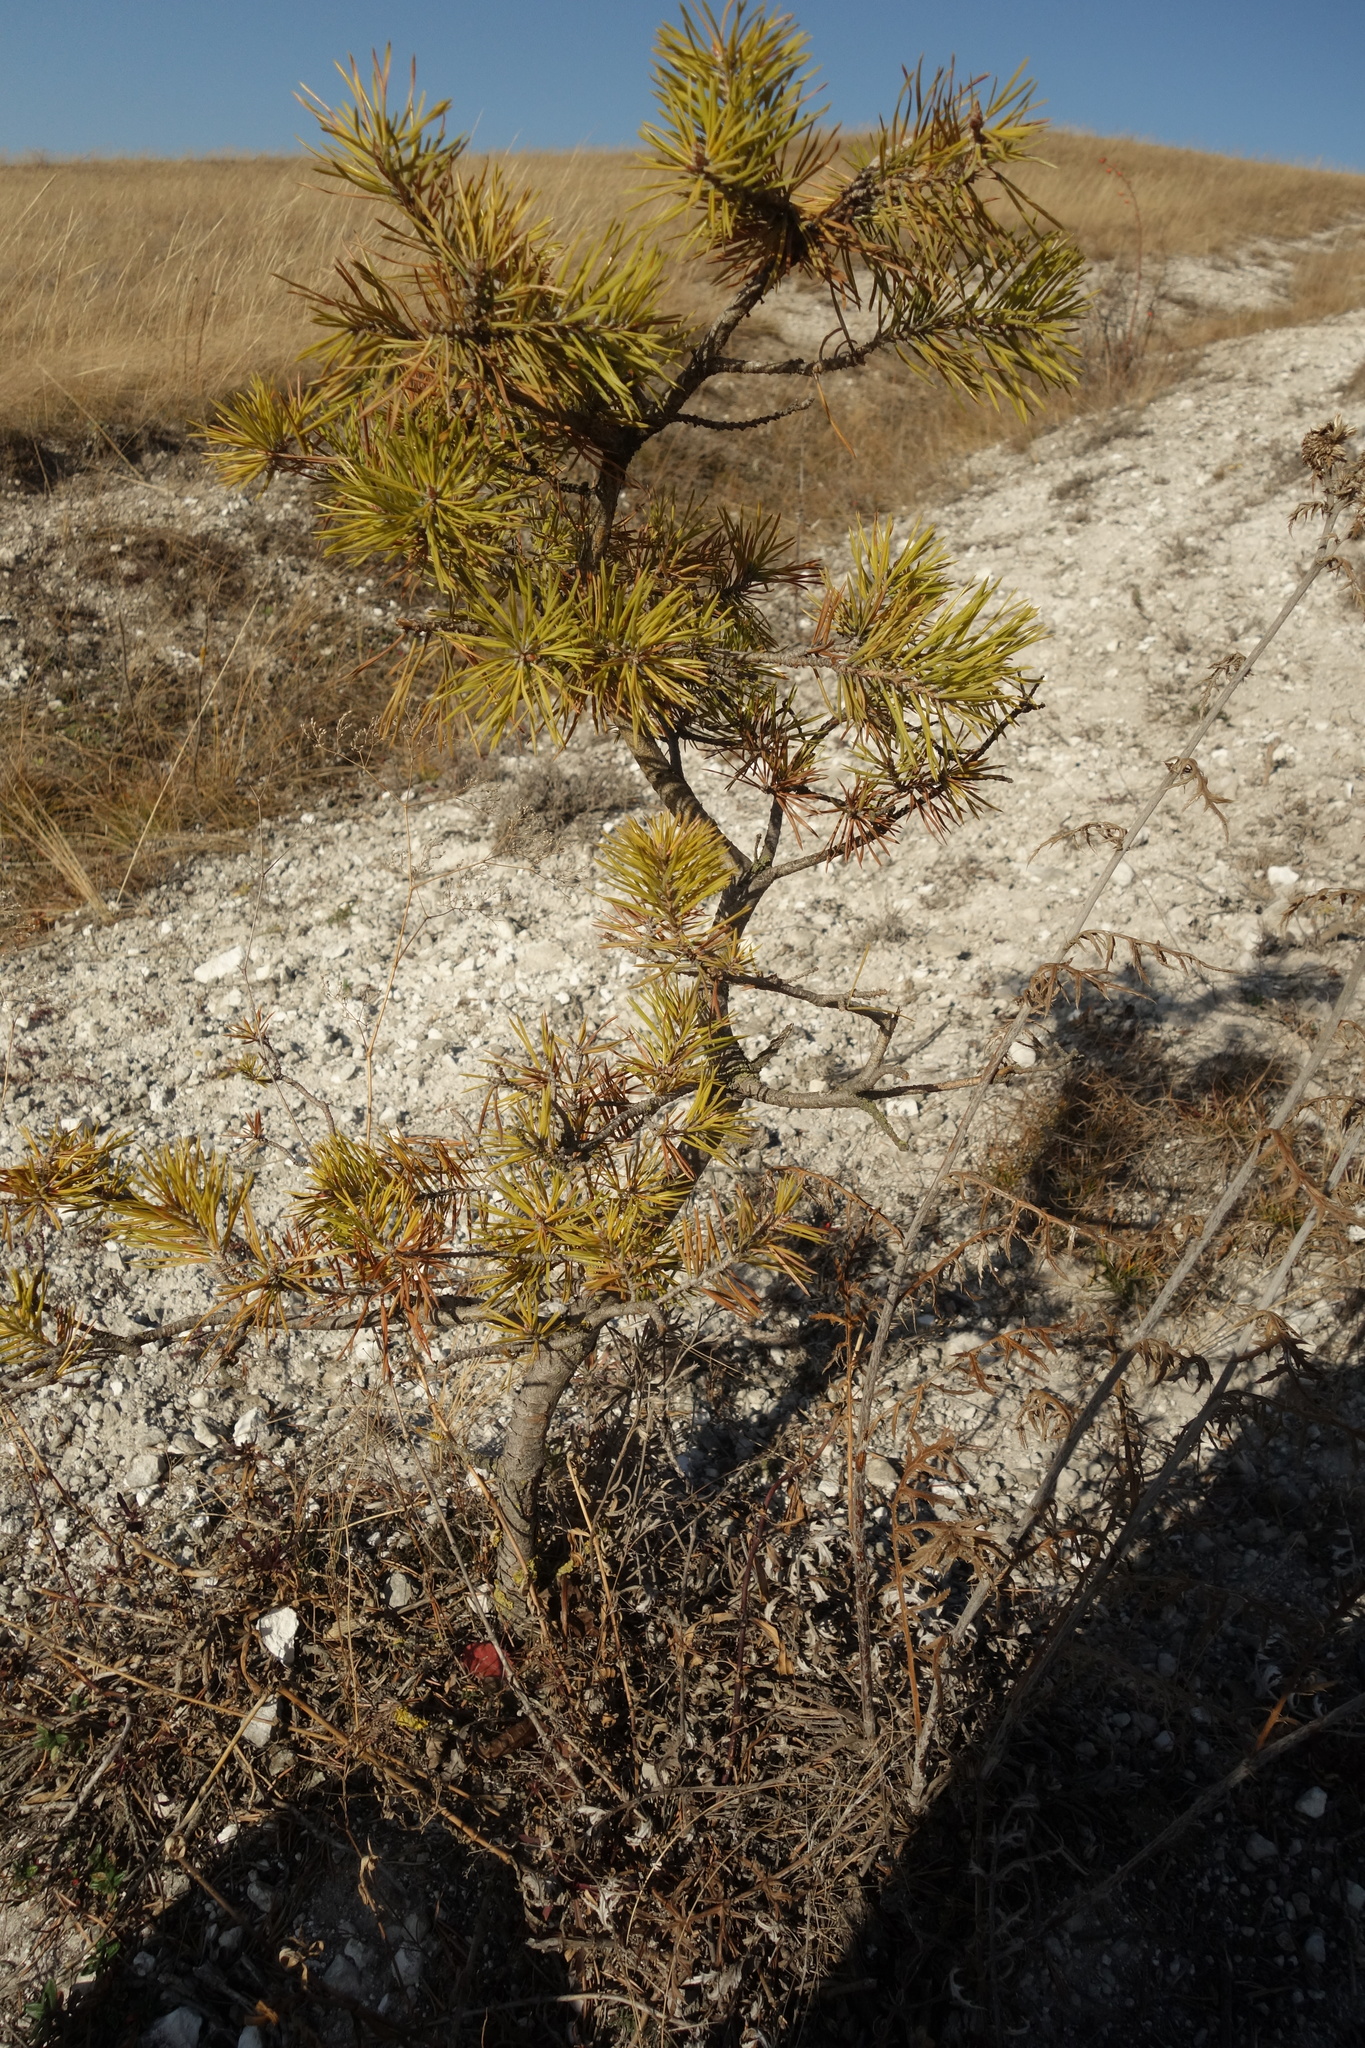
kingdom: Plantae
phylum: Tracheophyta
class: Pinopsida
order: Pinales
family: Pinaceae
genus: Pinus
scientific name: Pinus sylvestris
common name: Scots pine
